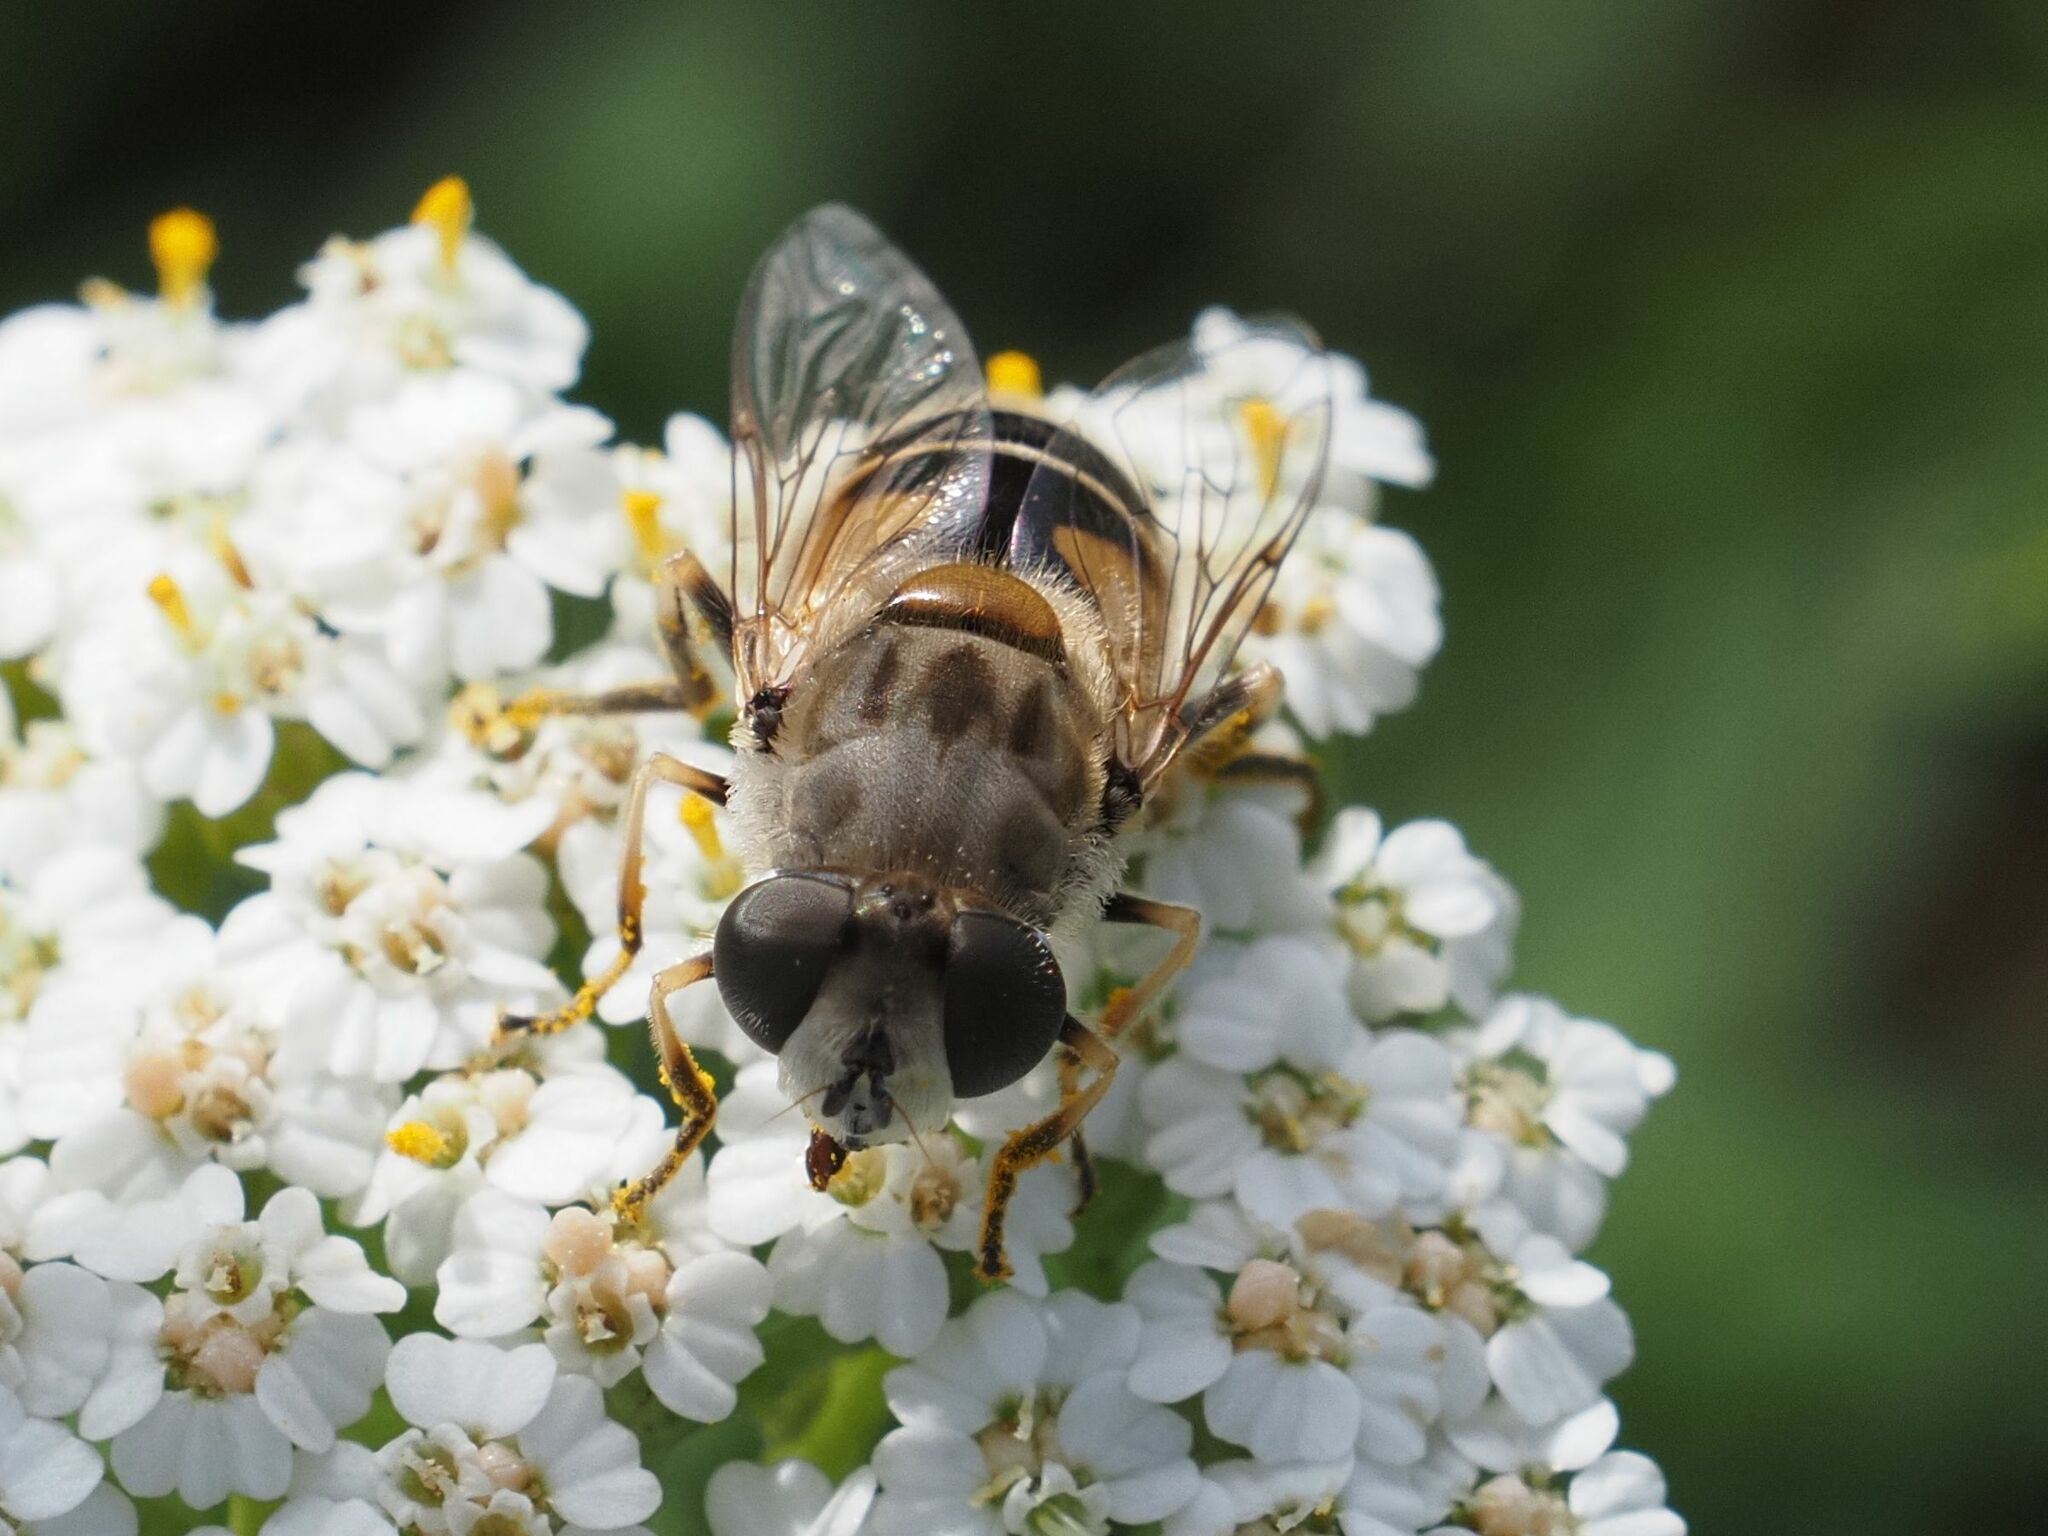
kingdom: Animalia
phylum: Arthropoda
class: Insecta
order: Diptera
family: Syrphidae
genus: Eristalis
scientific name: Eristalis arbustorum
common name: Hover fly
